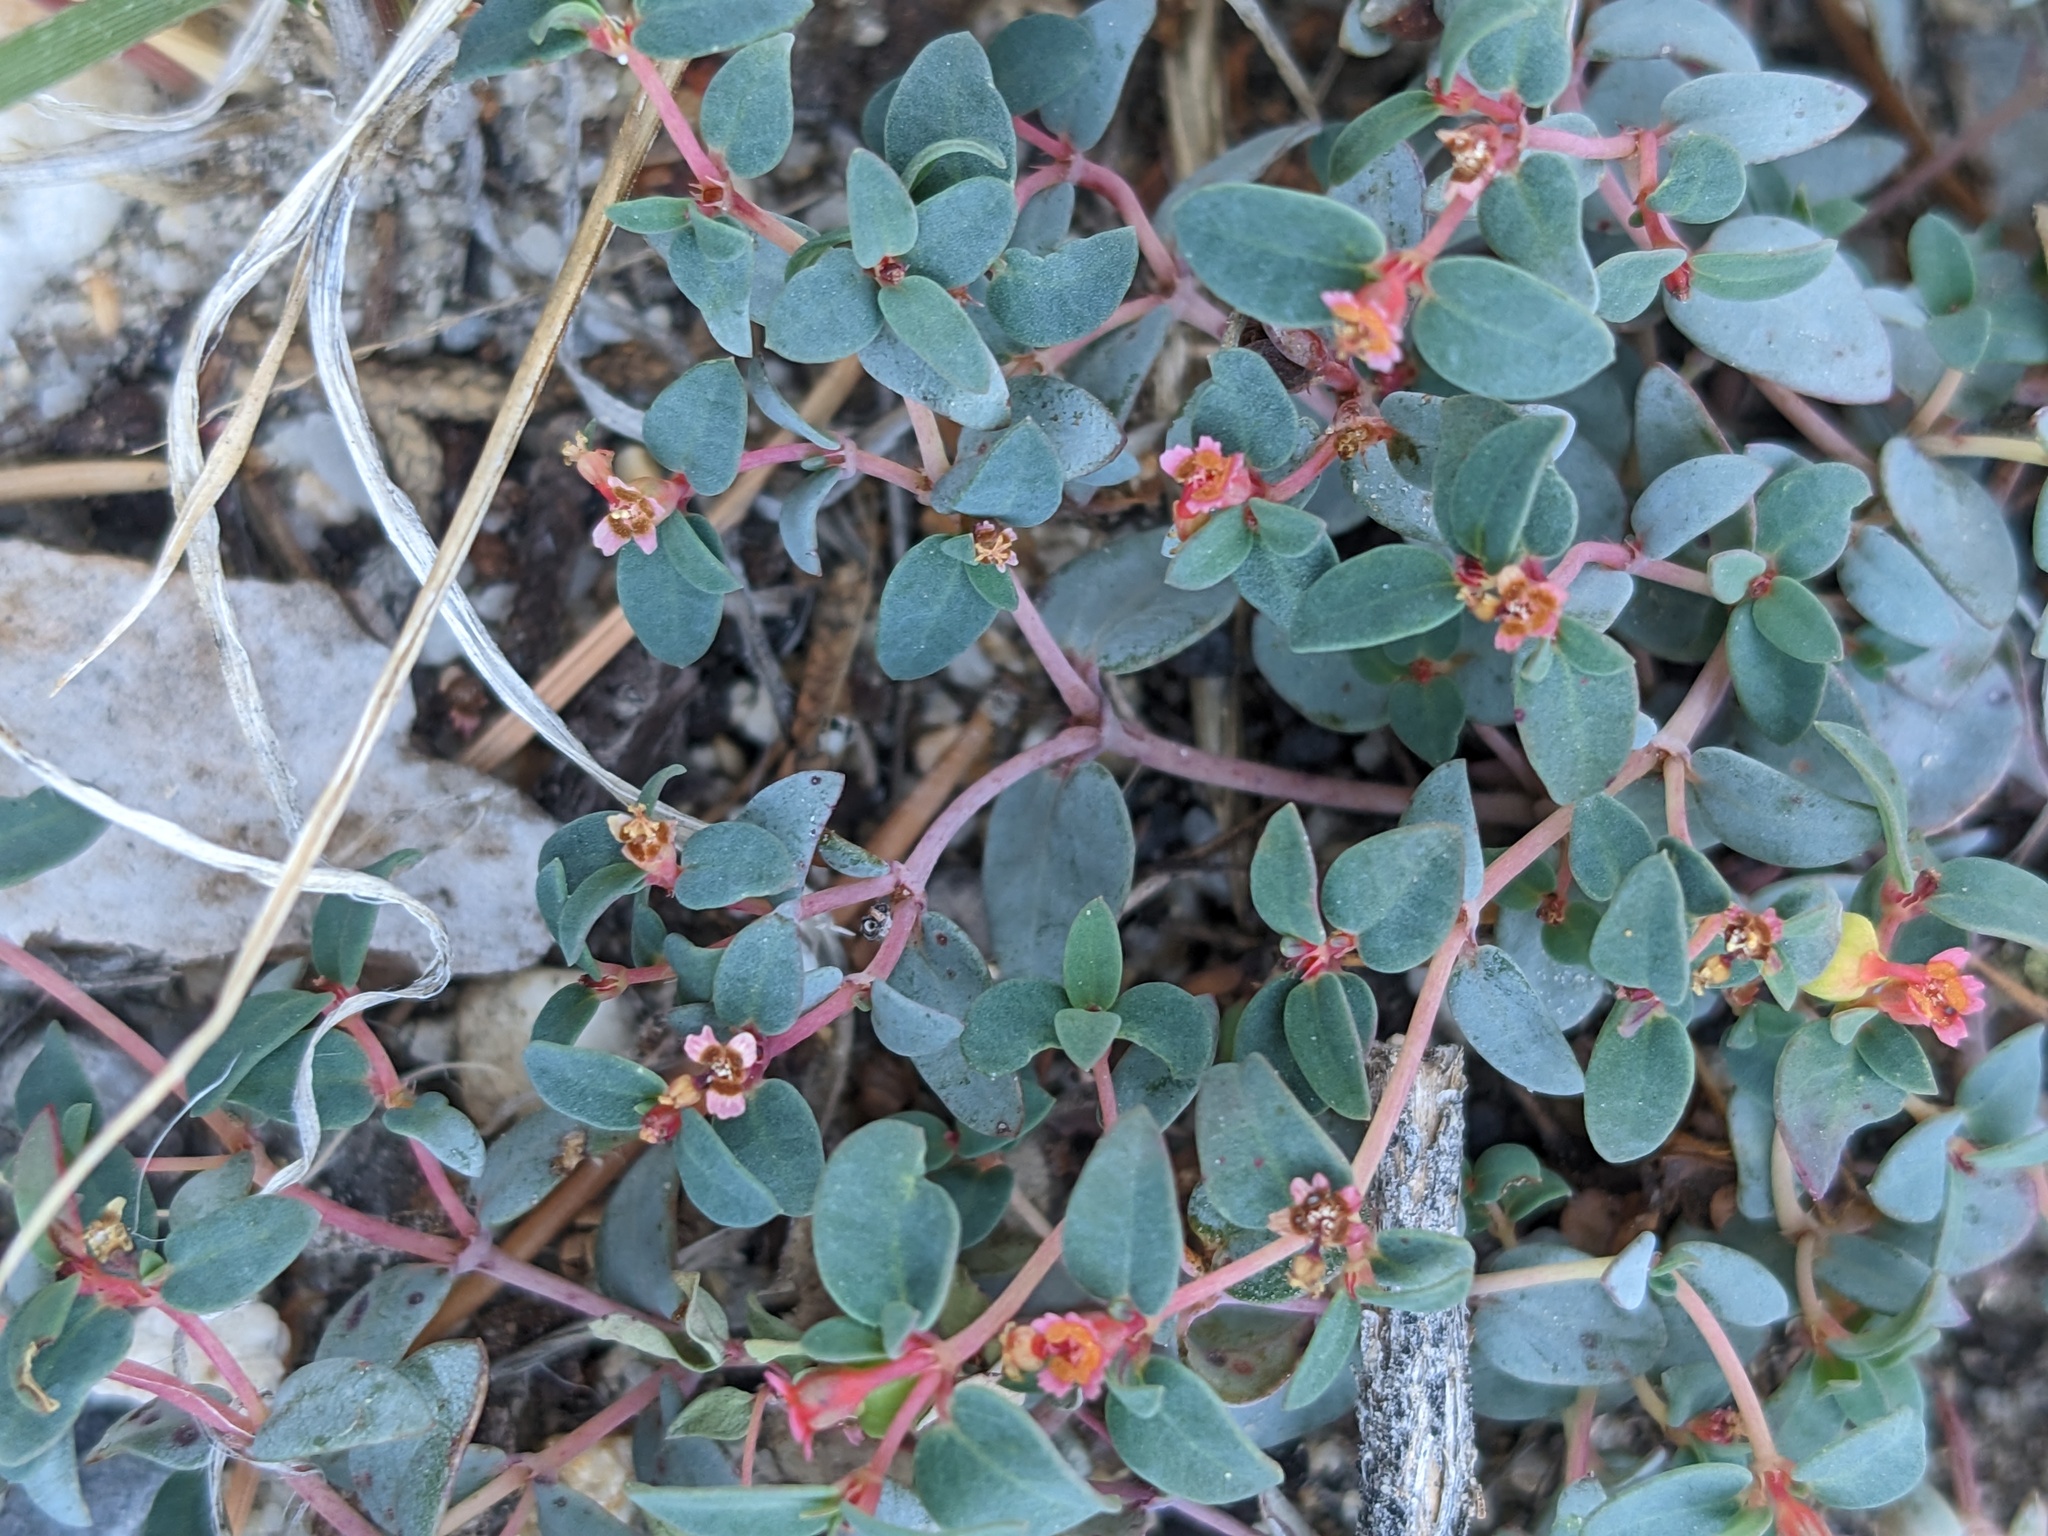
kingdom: Plantae
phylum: Tracheophyta
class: Magnoliopsida
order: Malpighiales
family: Euphorbiaceae
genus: Euphorbia
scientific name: Euphorbia fendleri
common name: Fendler's euphorbia
